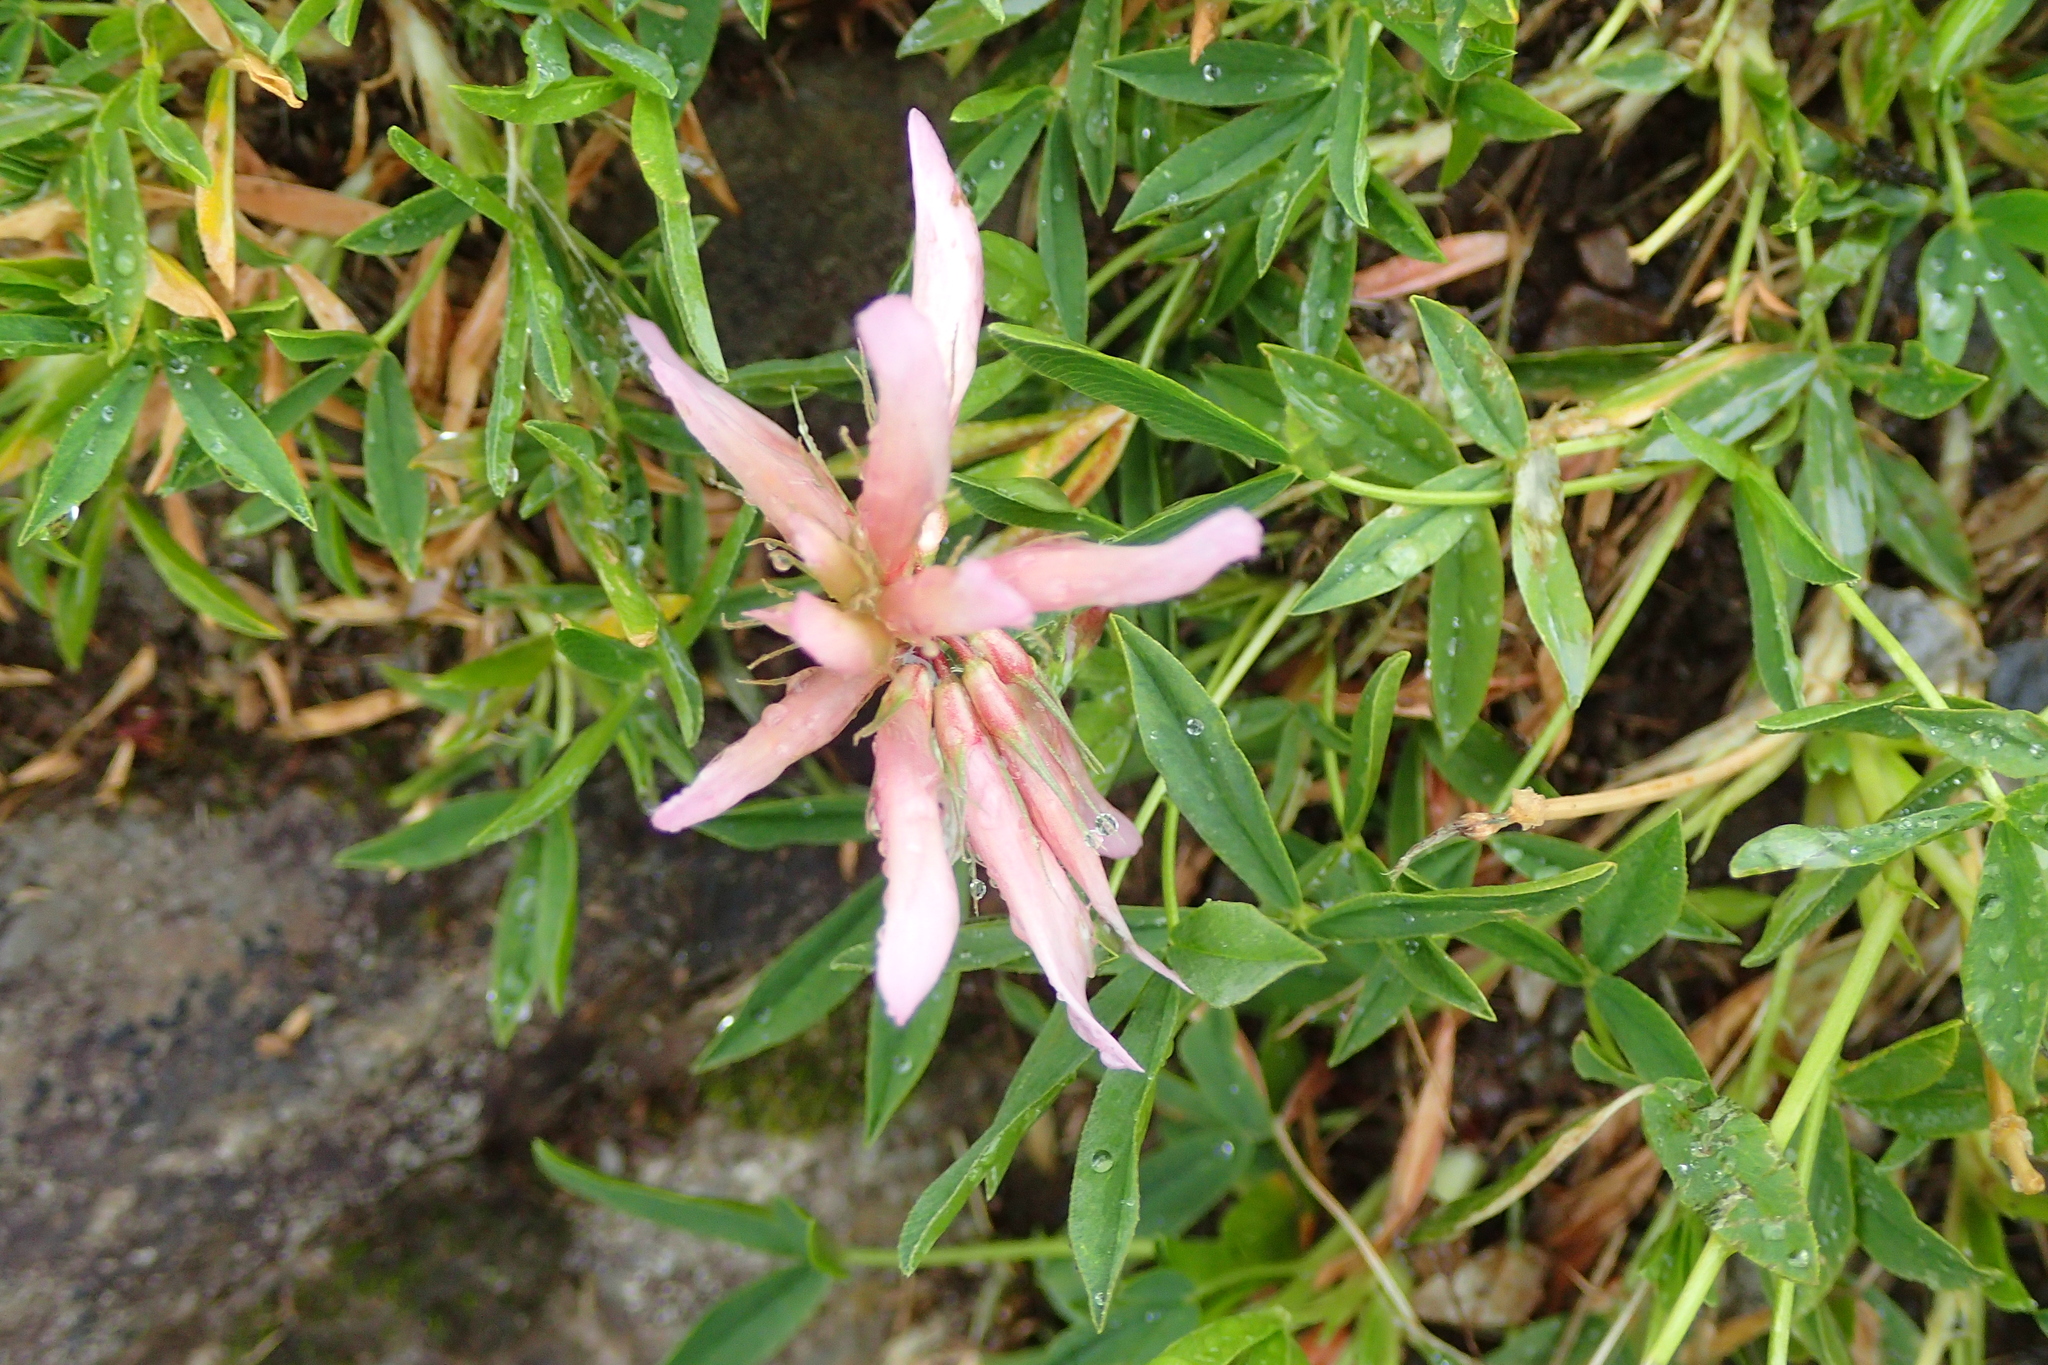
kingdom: Plantae
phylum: Tracheophyta
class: Magnoliopsida
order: Fabales
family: Fabaceae
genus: Trifolium
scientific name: Trifolium alpinum
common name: Alpine clover
